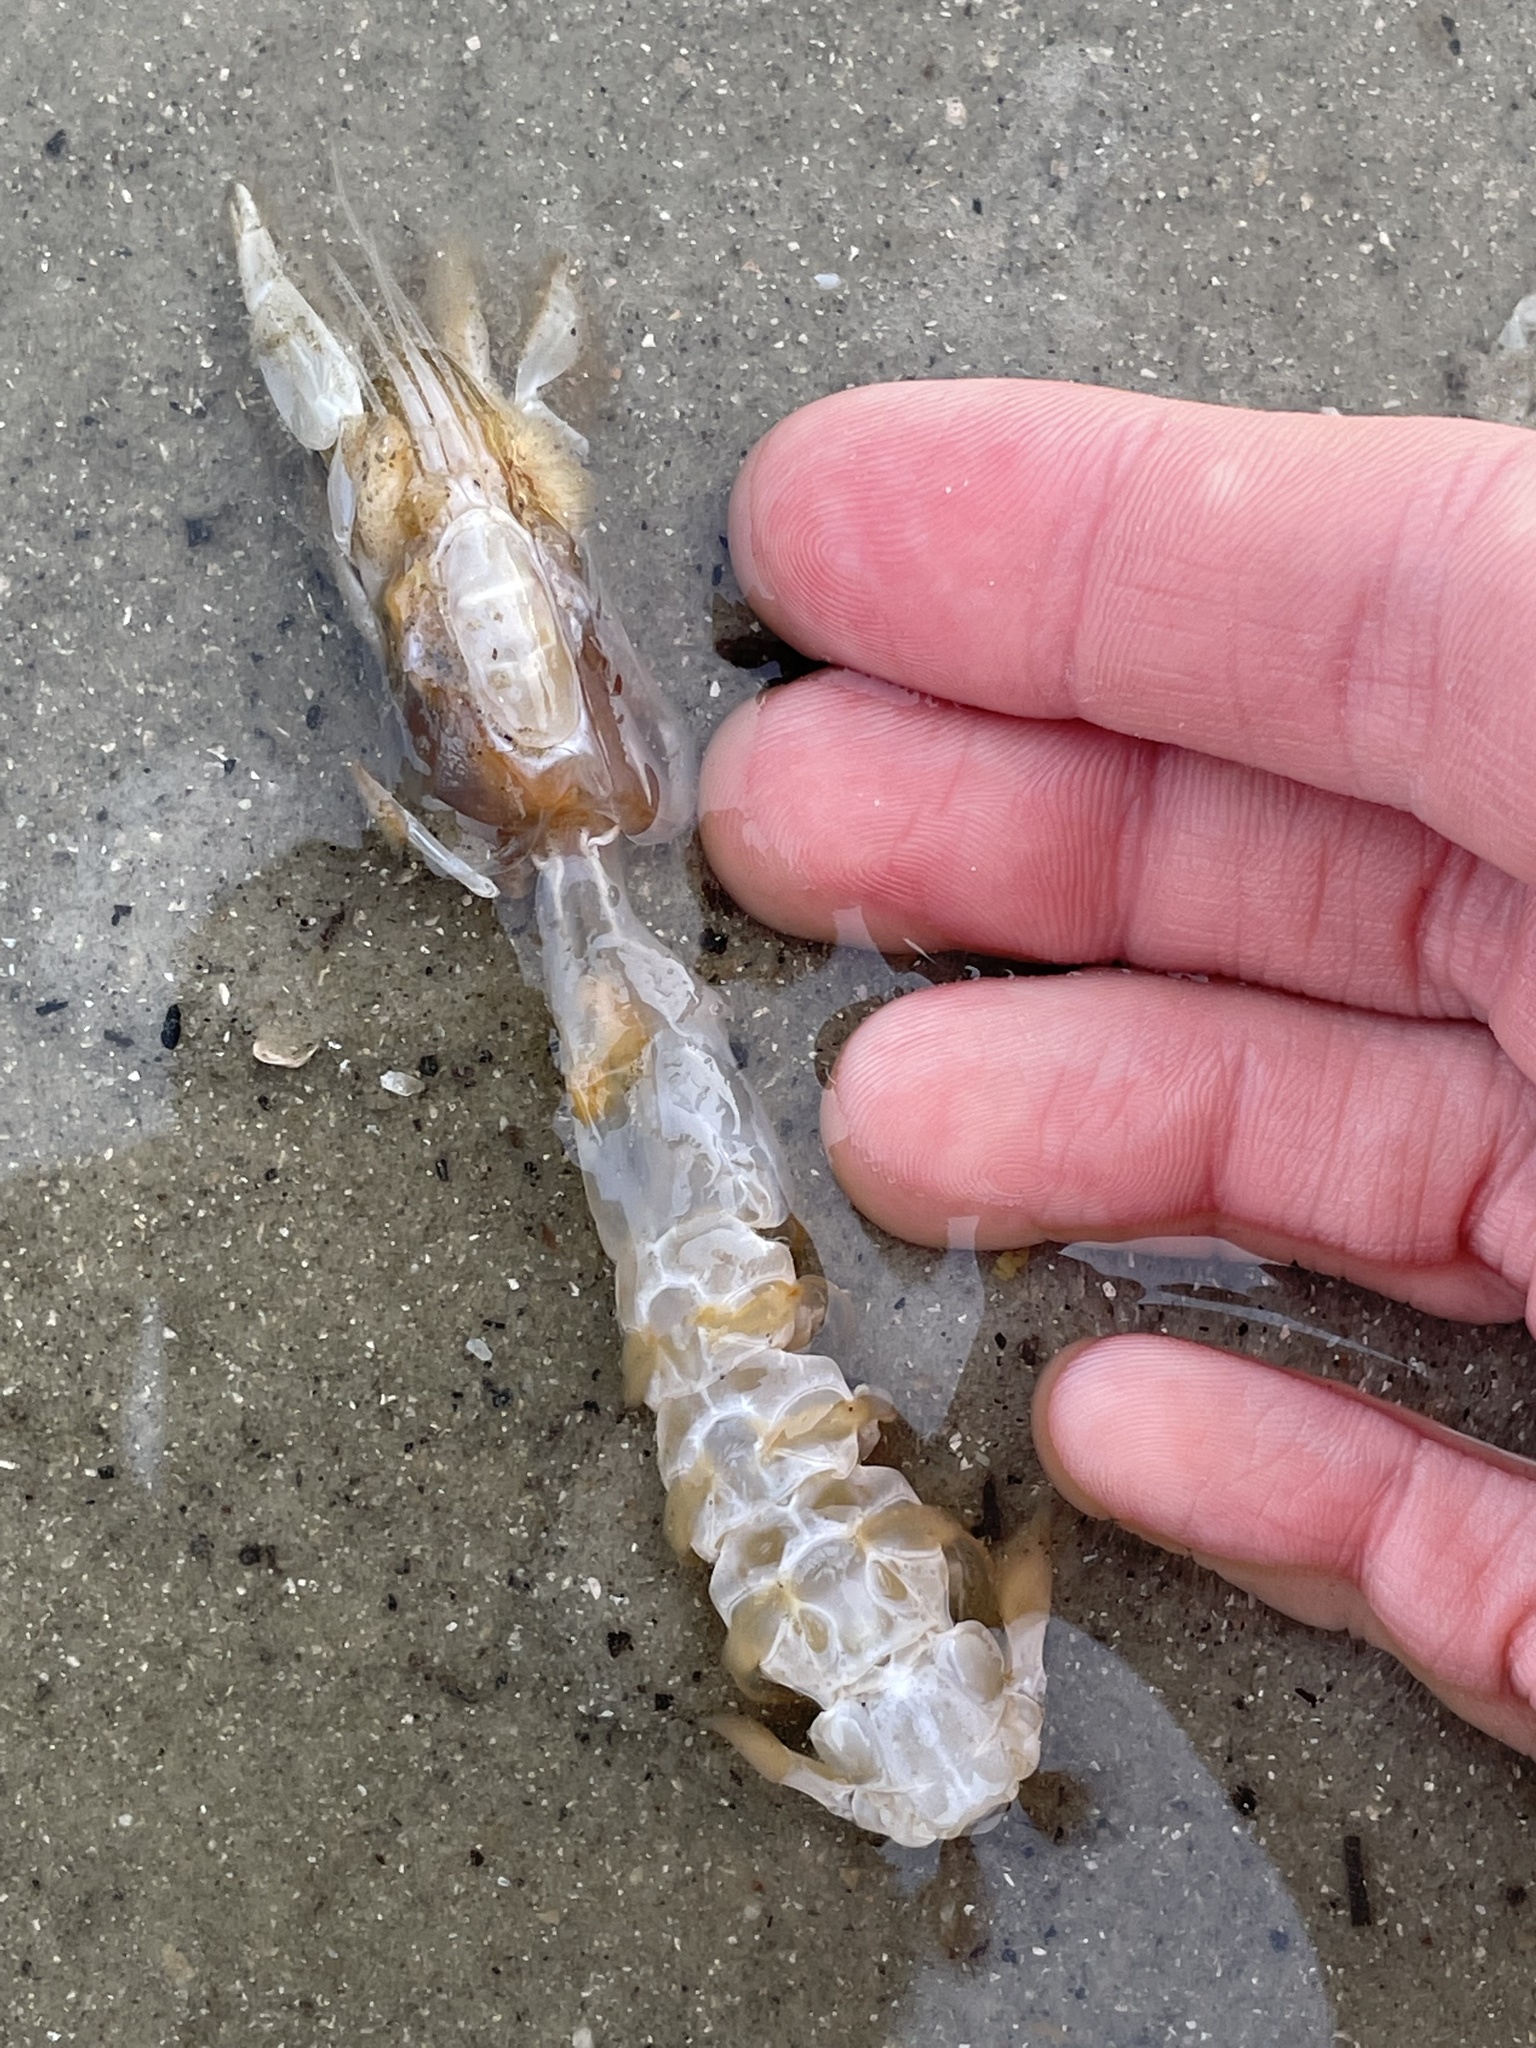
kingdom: Animalia
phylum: Arthropoda
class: Malacostraca
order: Decapoda
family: Callichiridae
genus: Callichirus
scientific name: Callichirus major
